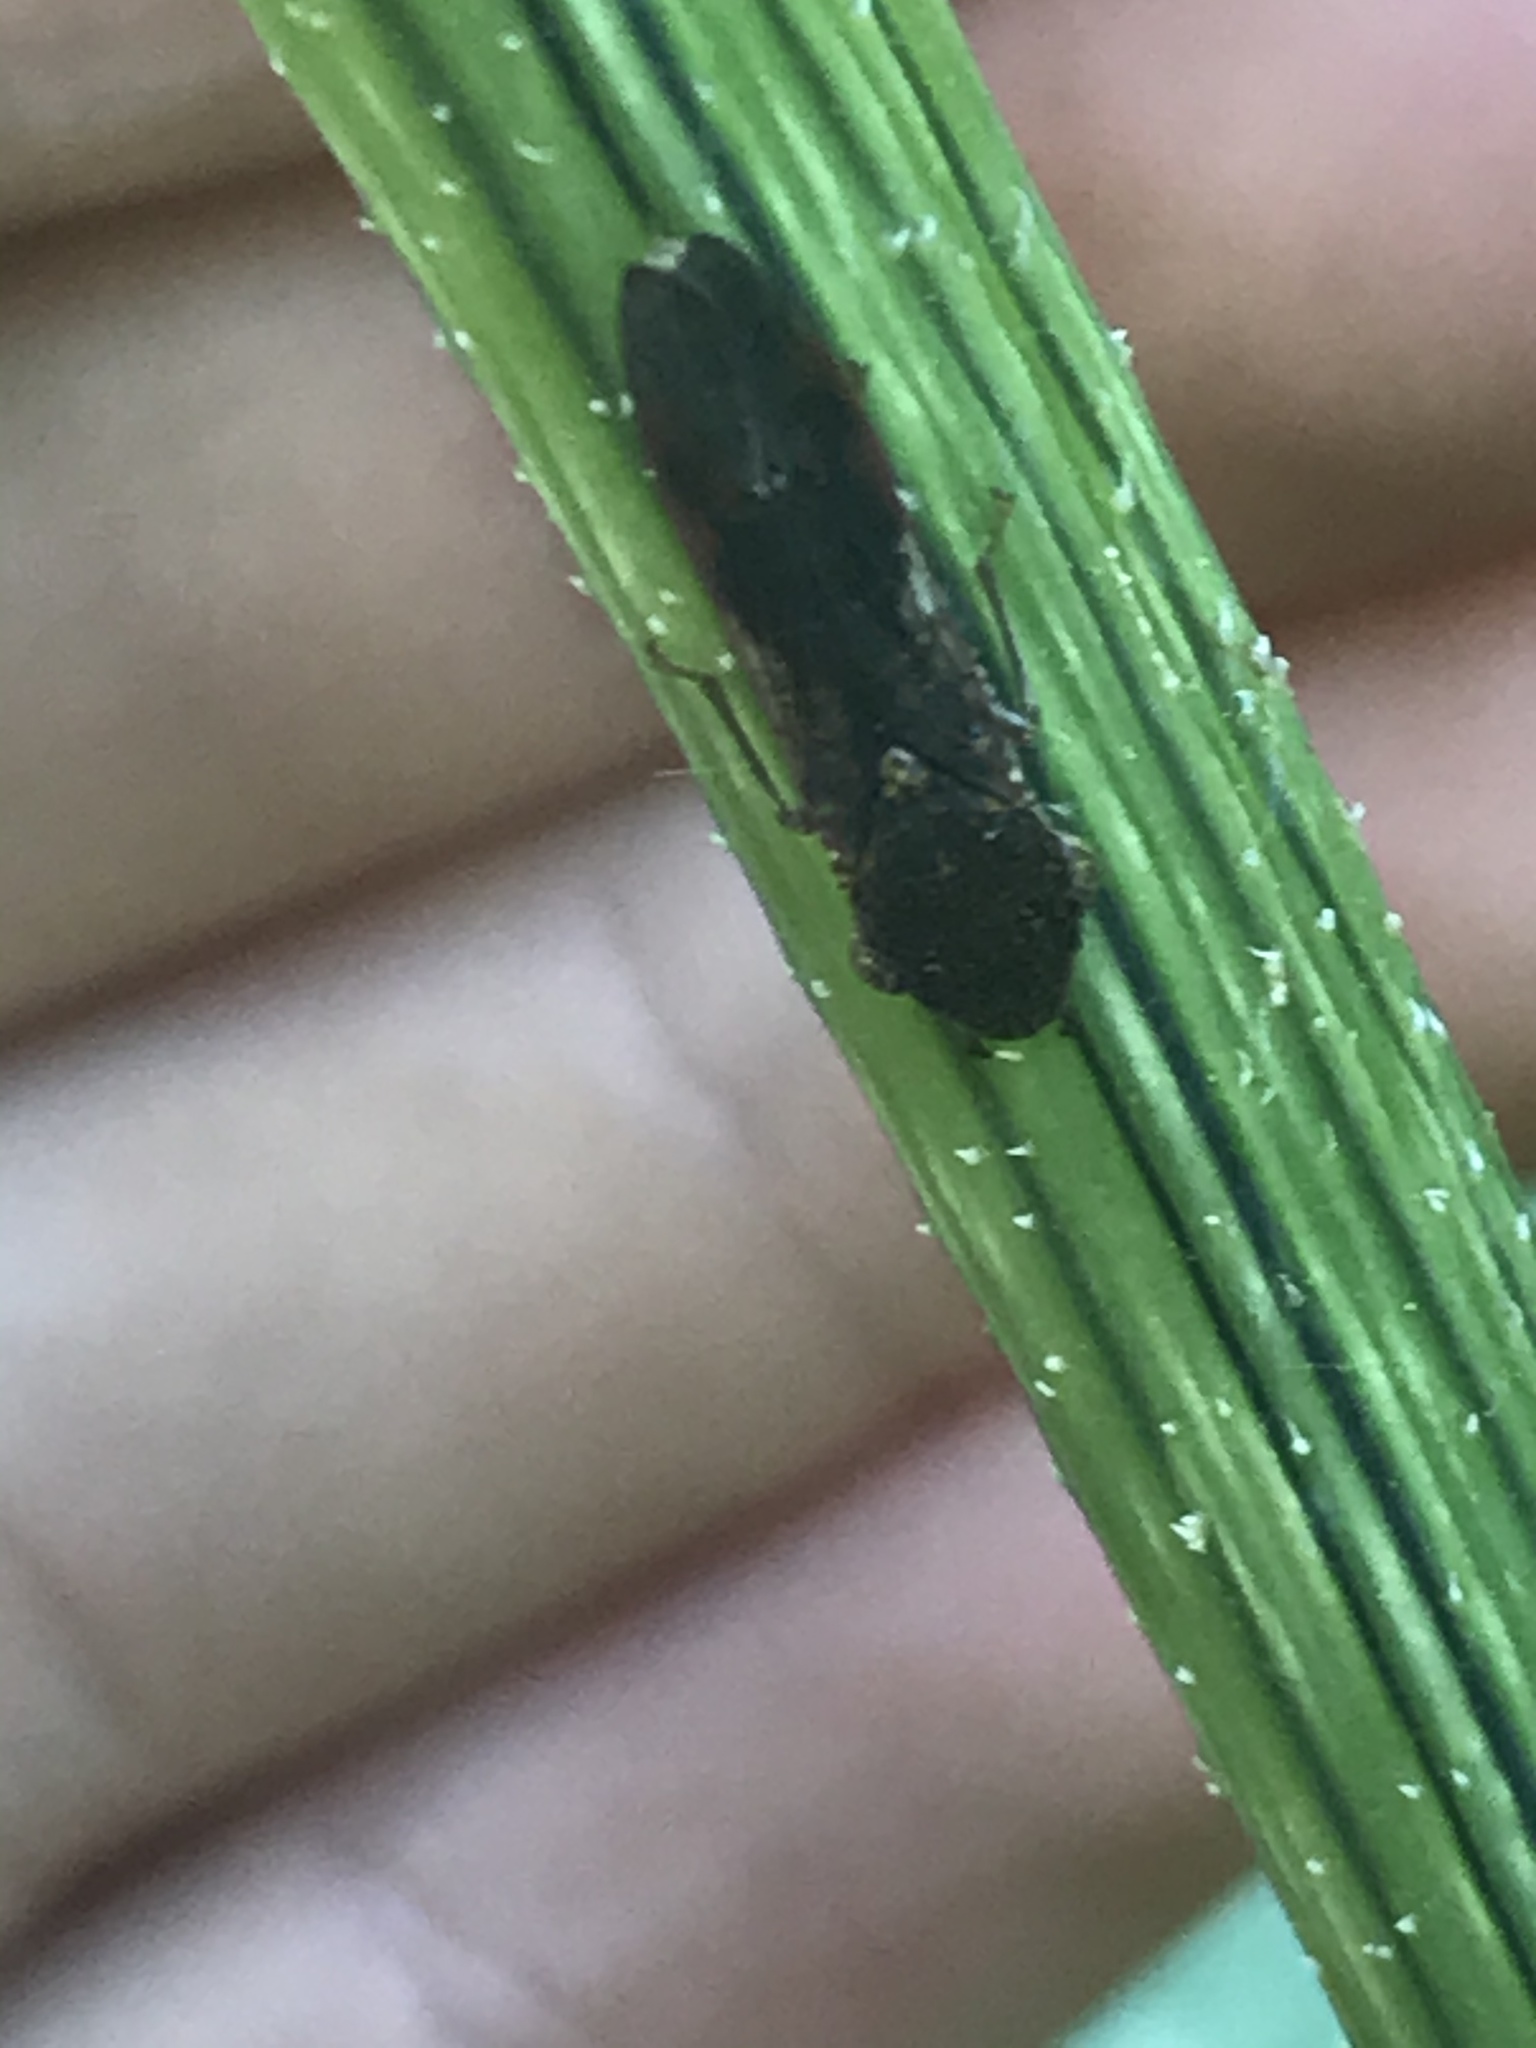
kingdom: Animalia
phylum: Arthropoda
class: Insecta
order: Hemiptera
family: Cicadellidae
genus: Homalodisca
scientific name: Homalodisca vitripennis
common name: Glassy-winged sharpshooter
